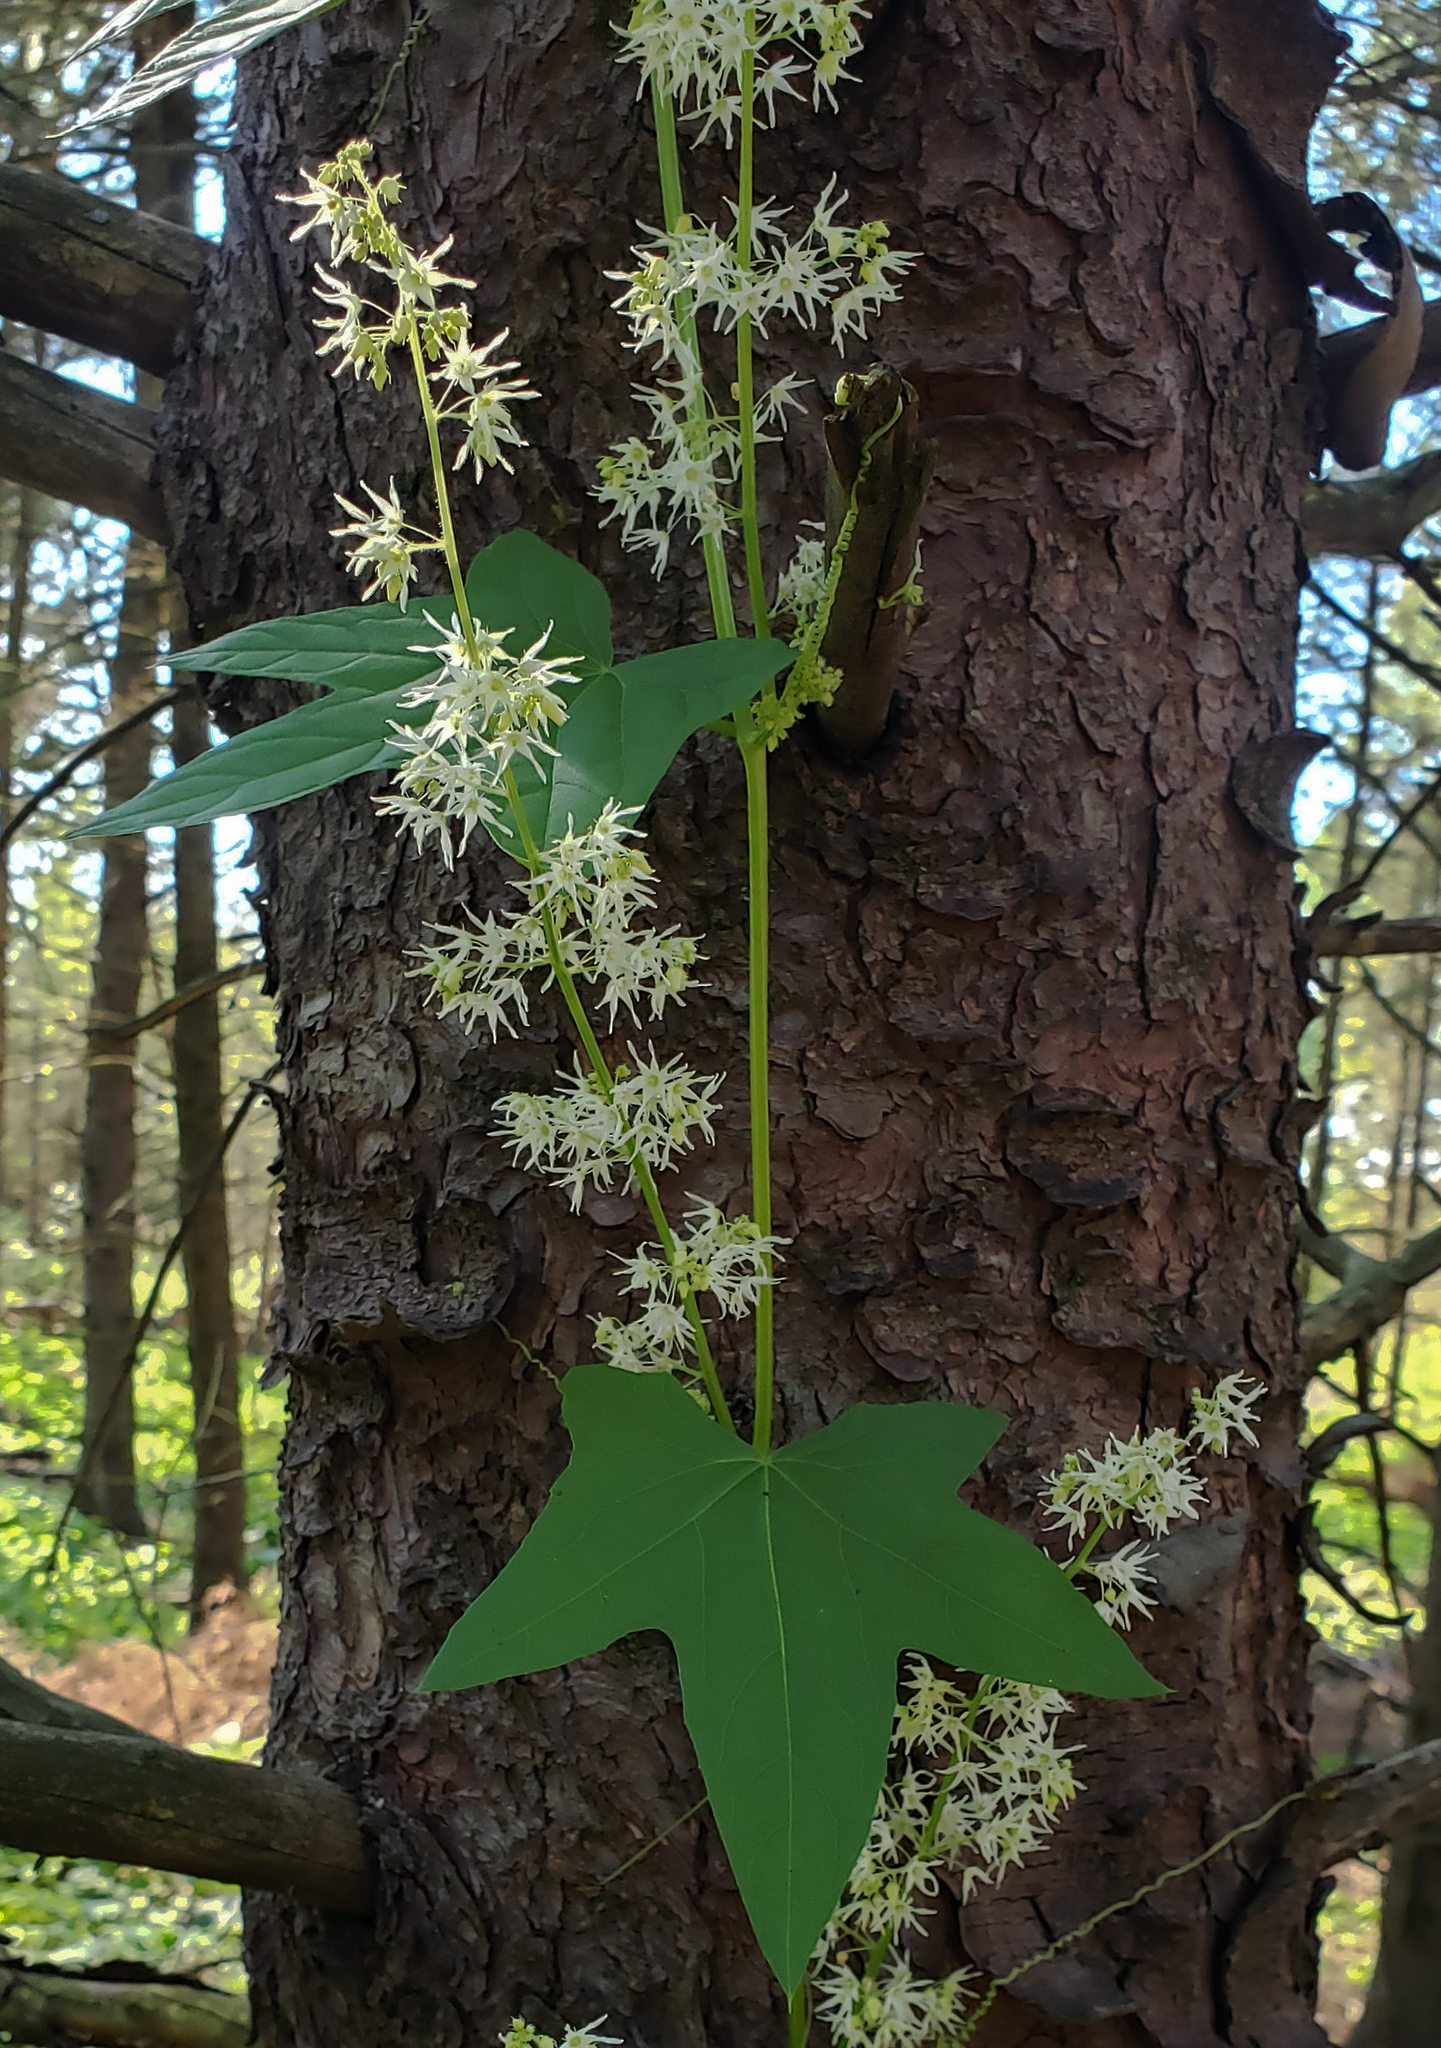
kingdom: Plantae
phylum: Tracheophyta
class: Magnoliopsida
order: Cucurbitales
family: Cucurbitaceae
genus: Echinocystis
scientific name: Echinocystis lobata
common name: Wild cucumber
